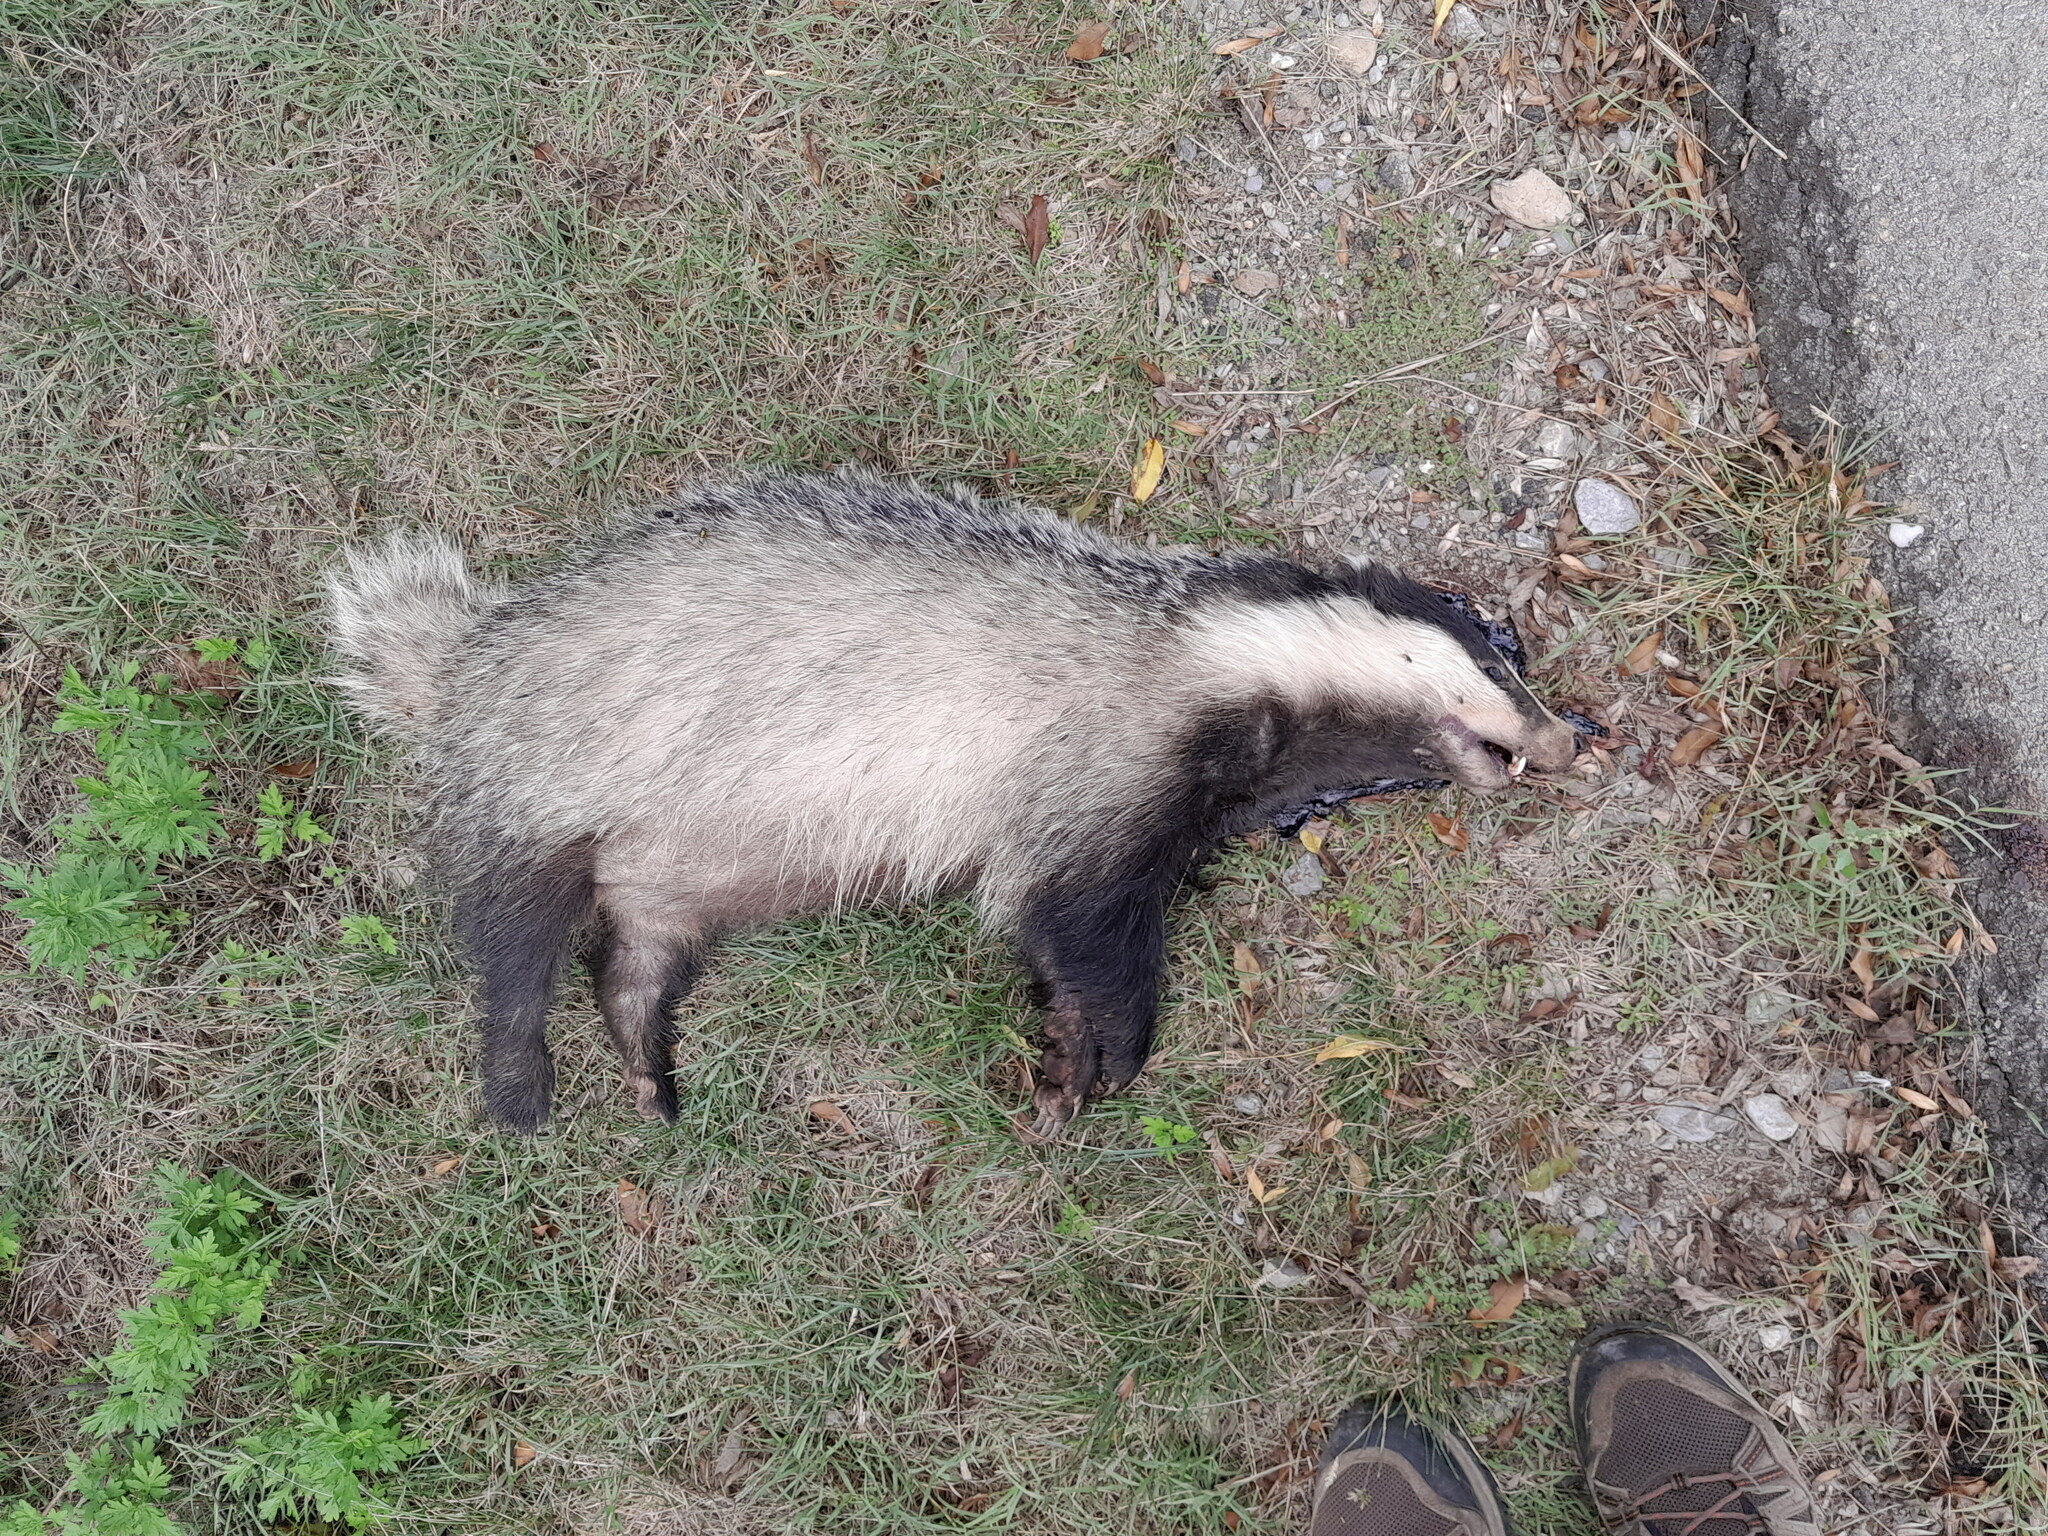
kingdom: Animalia
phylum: Chordata
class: Mammalia
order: Carnivora
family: Mustelidae
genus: Meles
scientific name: Meles meles
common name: Eurasian badger
